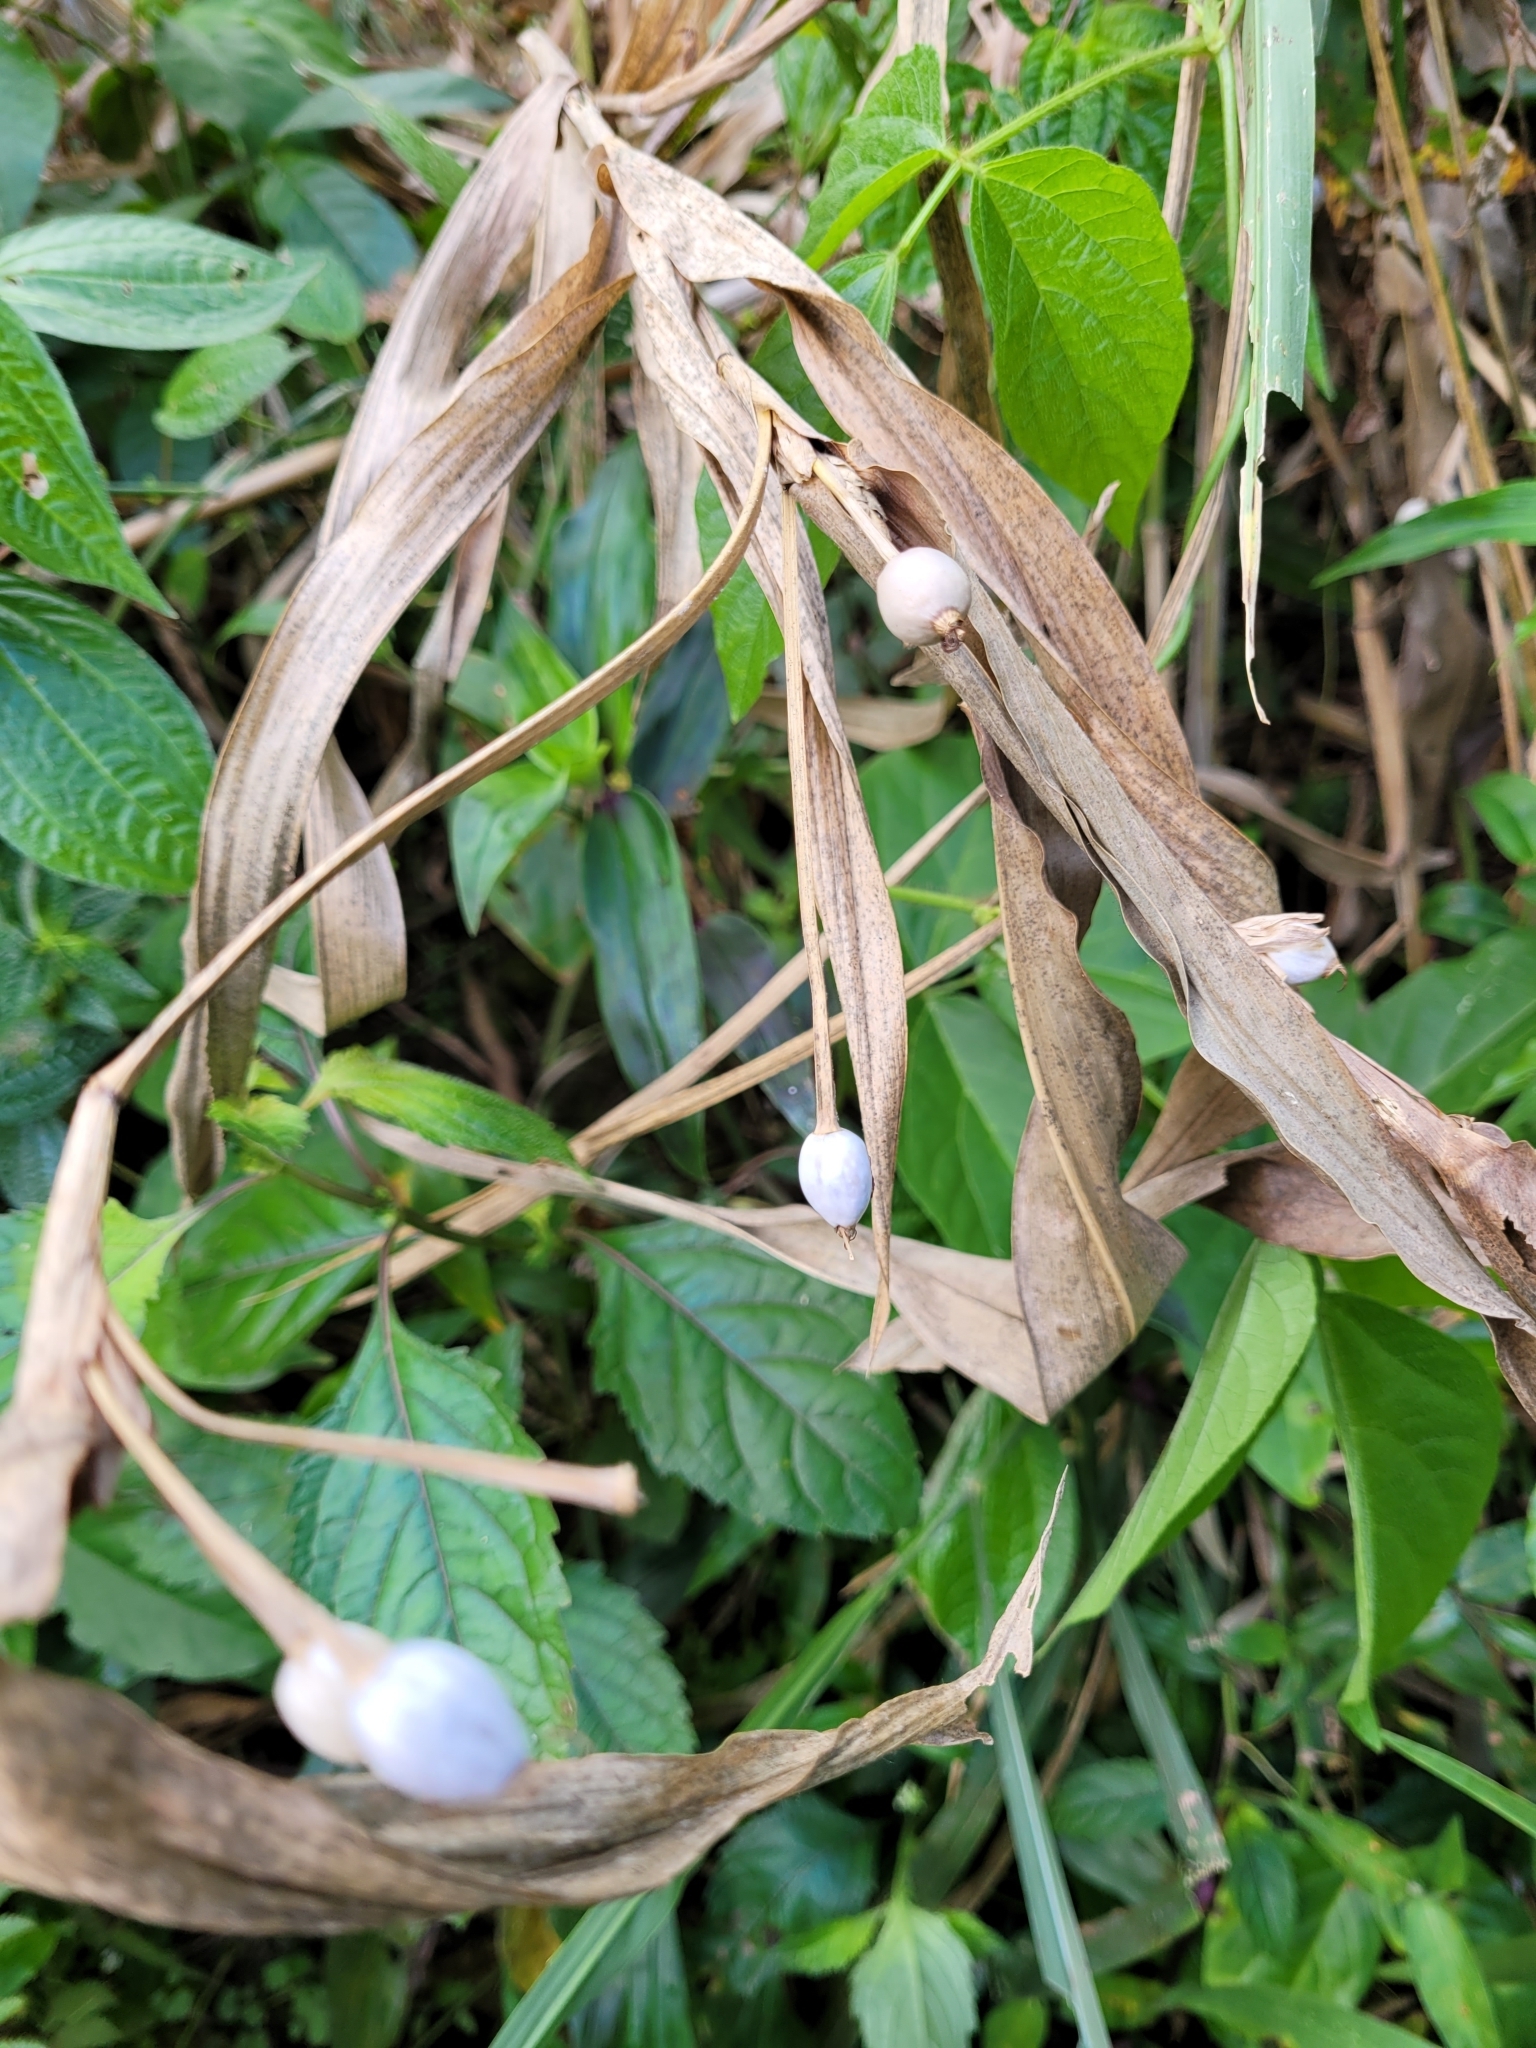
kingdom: Plantae
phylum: Tracheophyta
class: Liliopsida
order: Poales
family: Poaceae
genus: Coix
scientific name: Coix lacryma-jobi
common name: Job's tears
